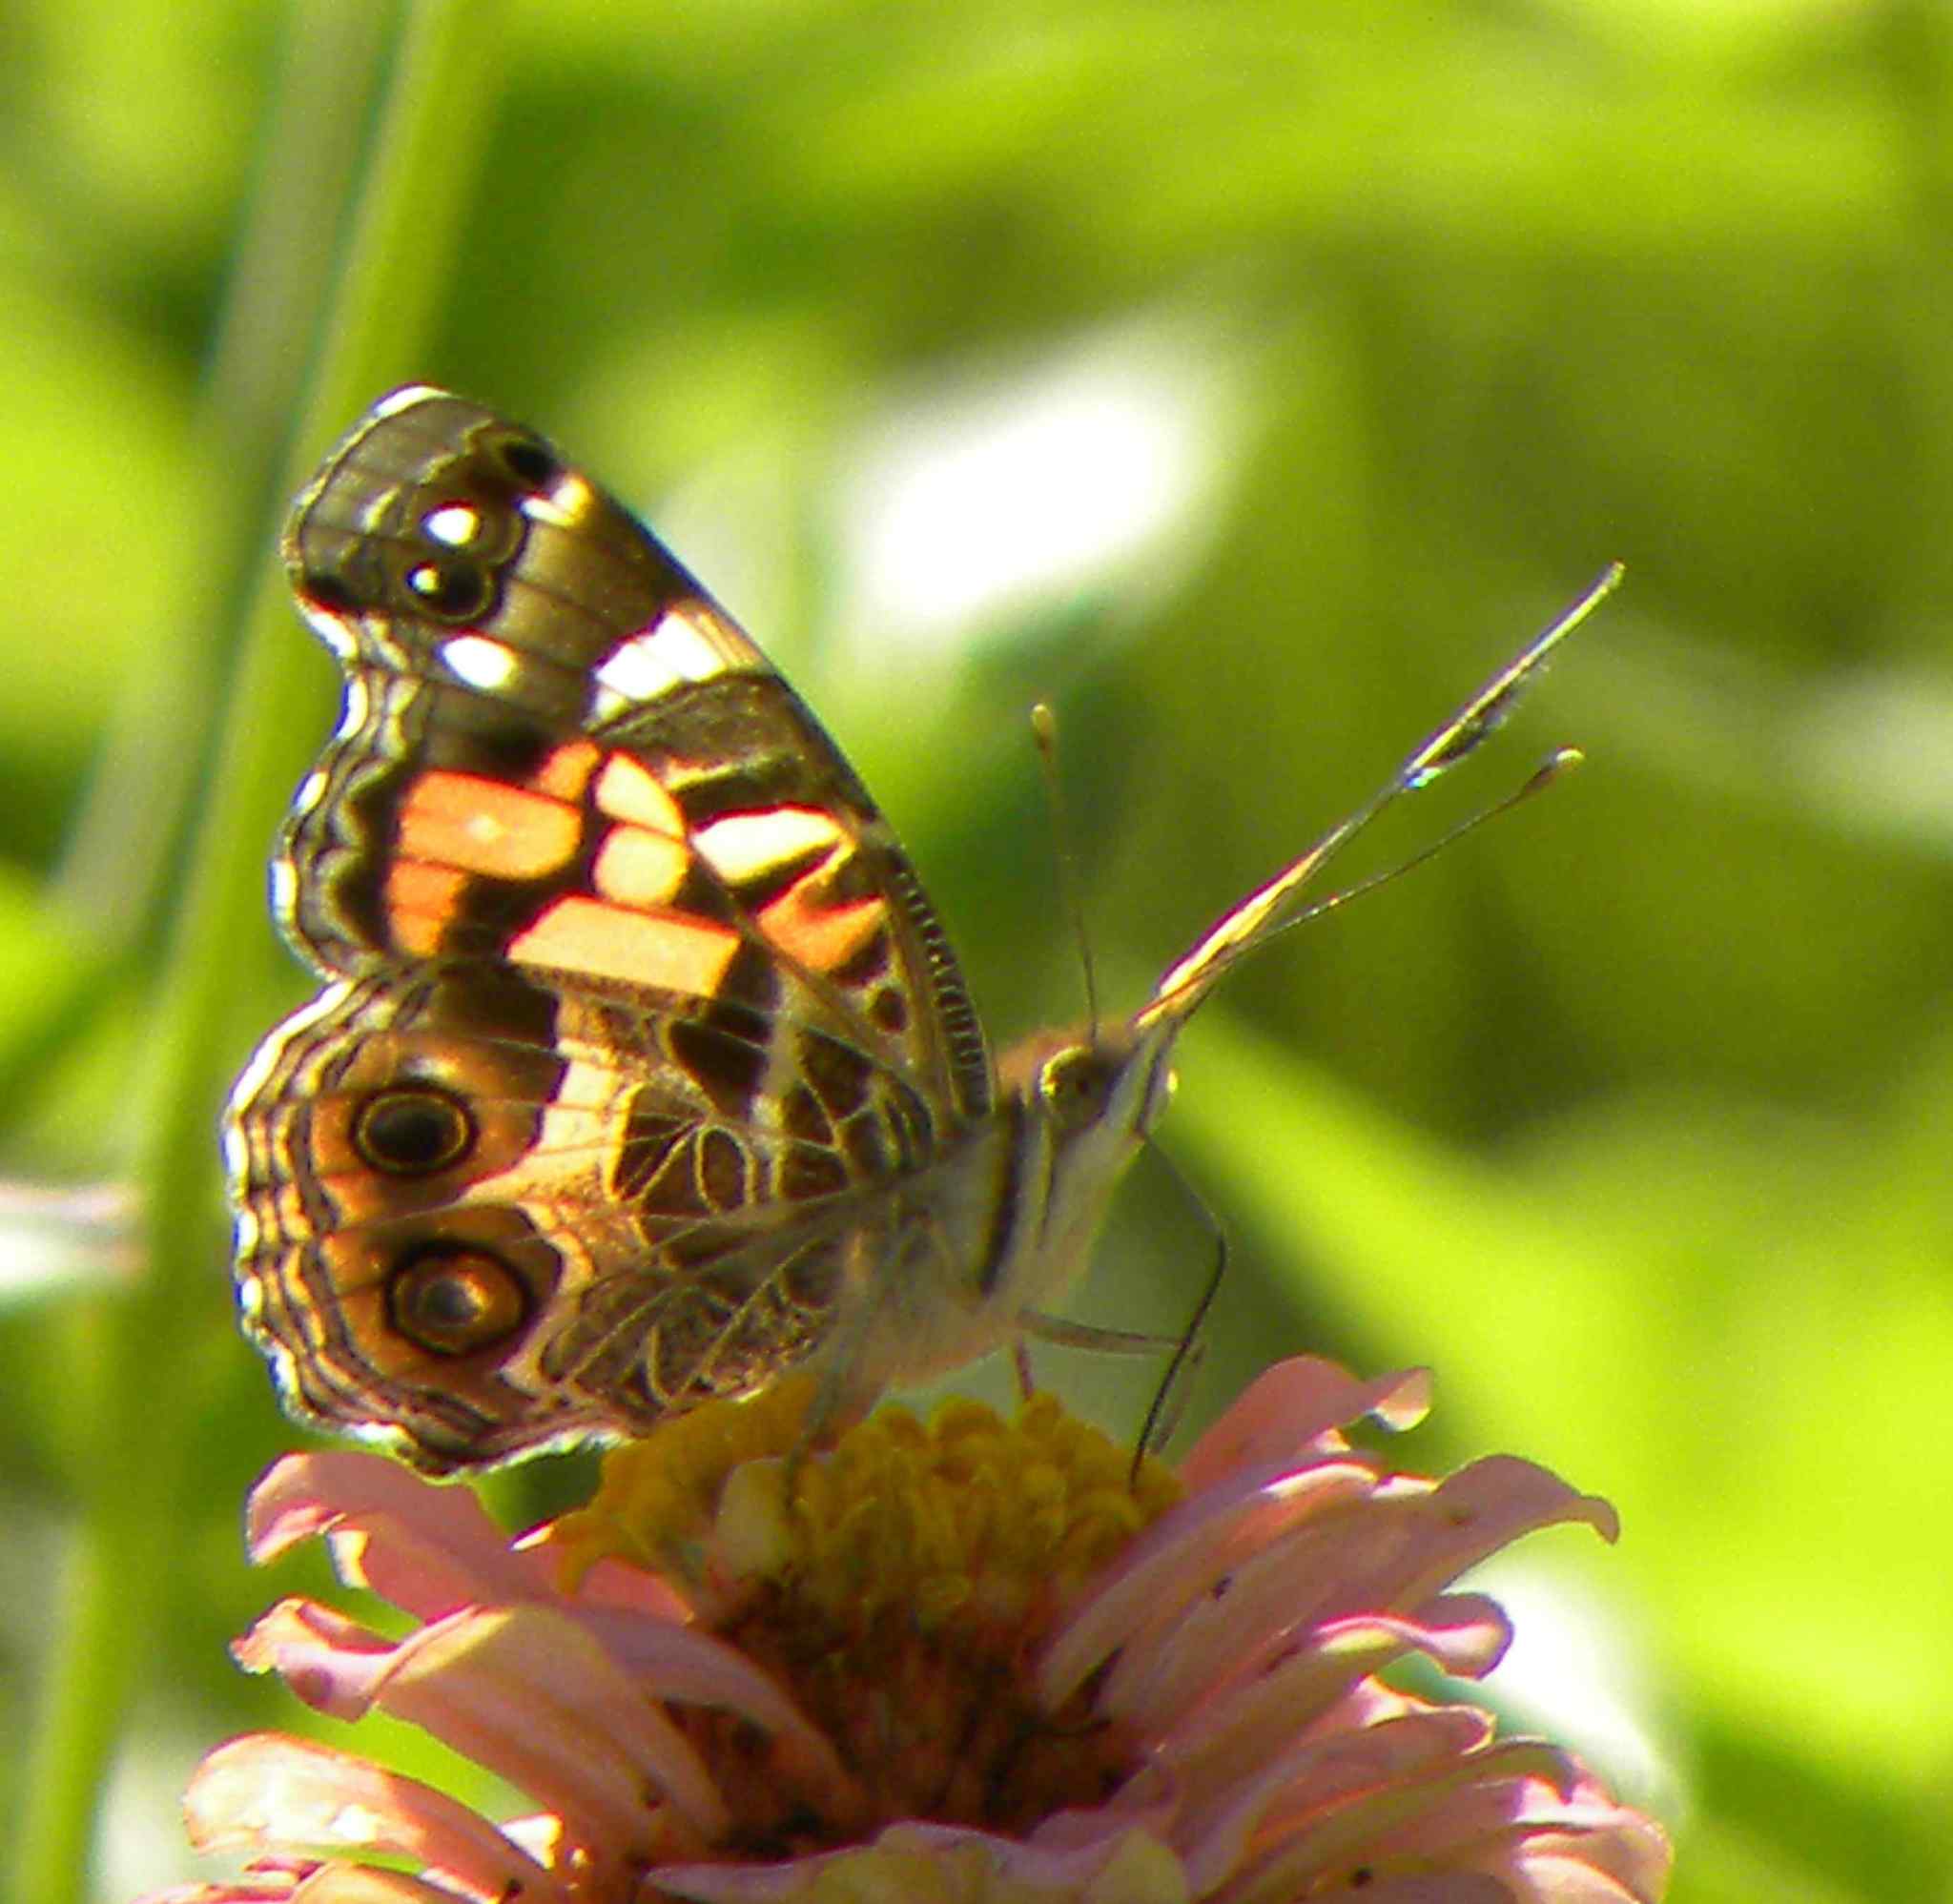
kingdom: Animalia
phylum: Arthropoda
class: Insecta
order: Lepidoptera
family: Nymphalidae
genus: Vanessa
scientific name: Vanessa virginiensis
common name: American lady
